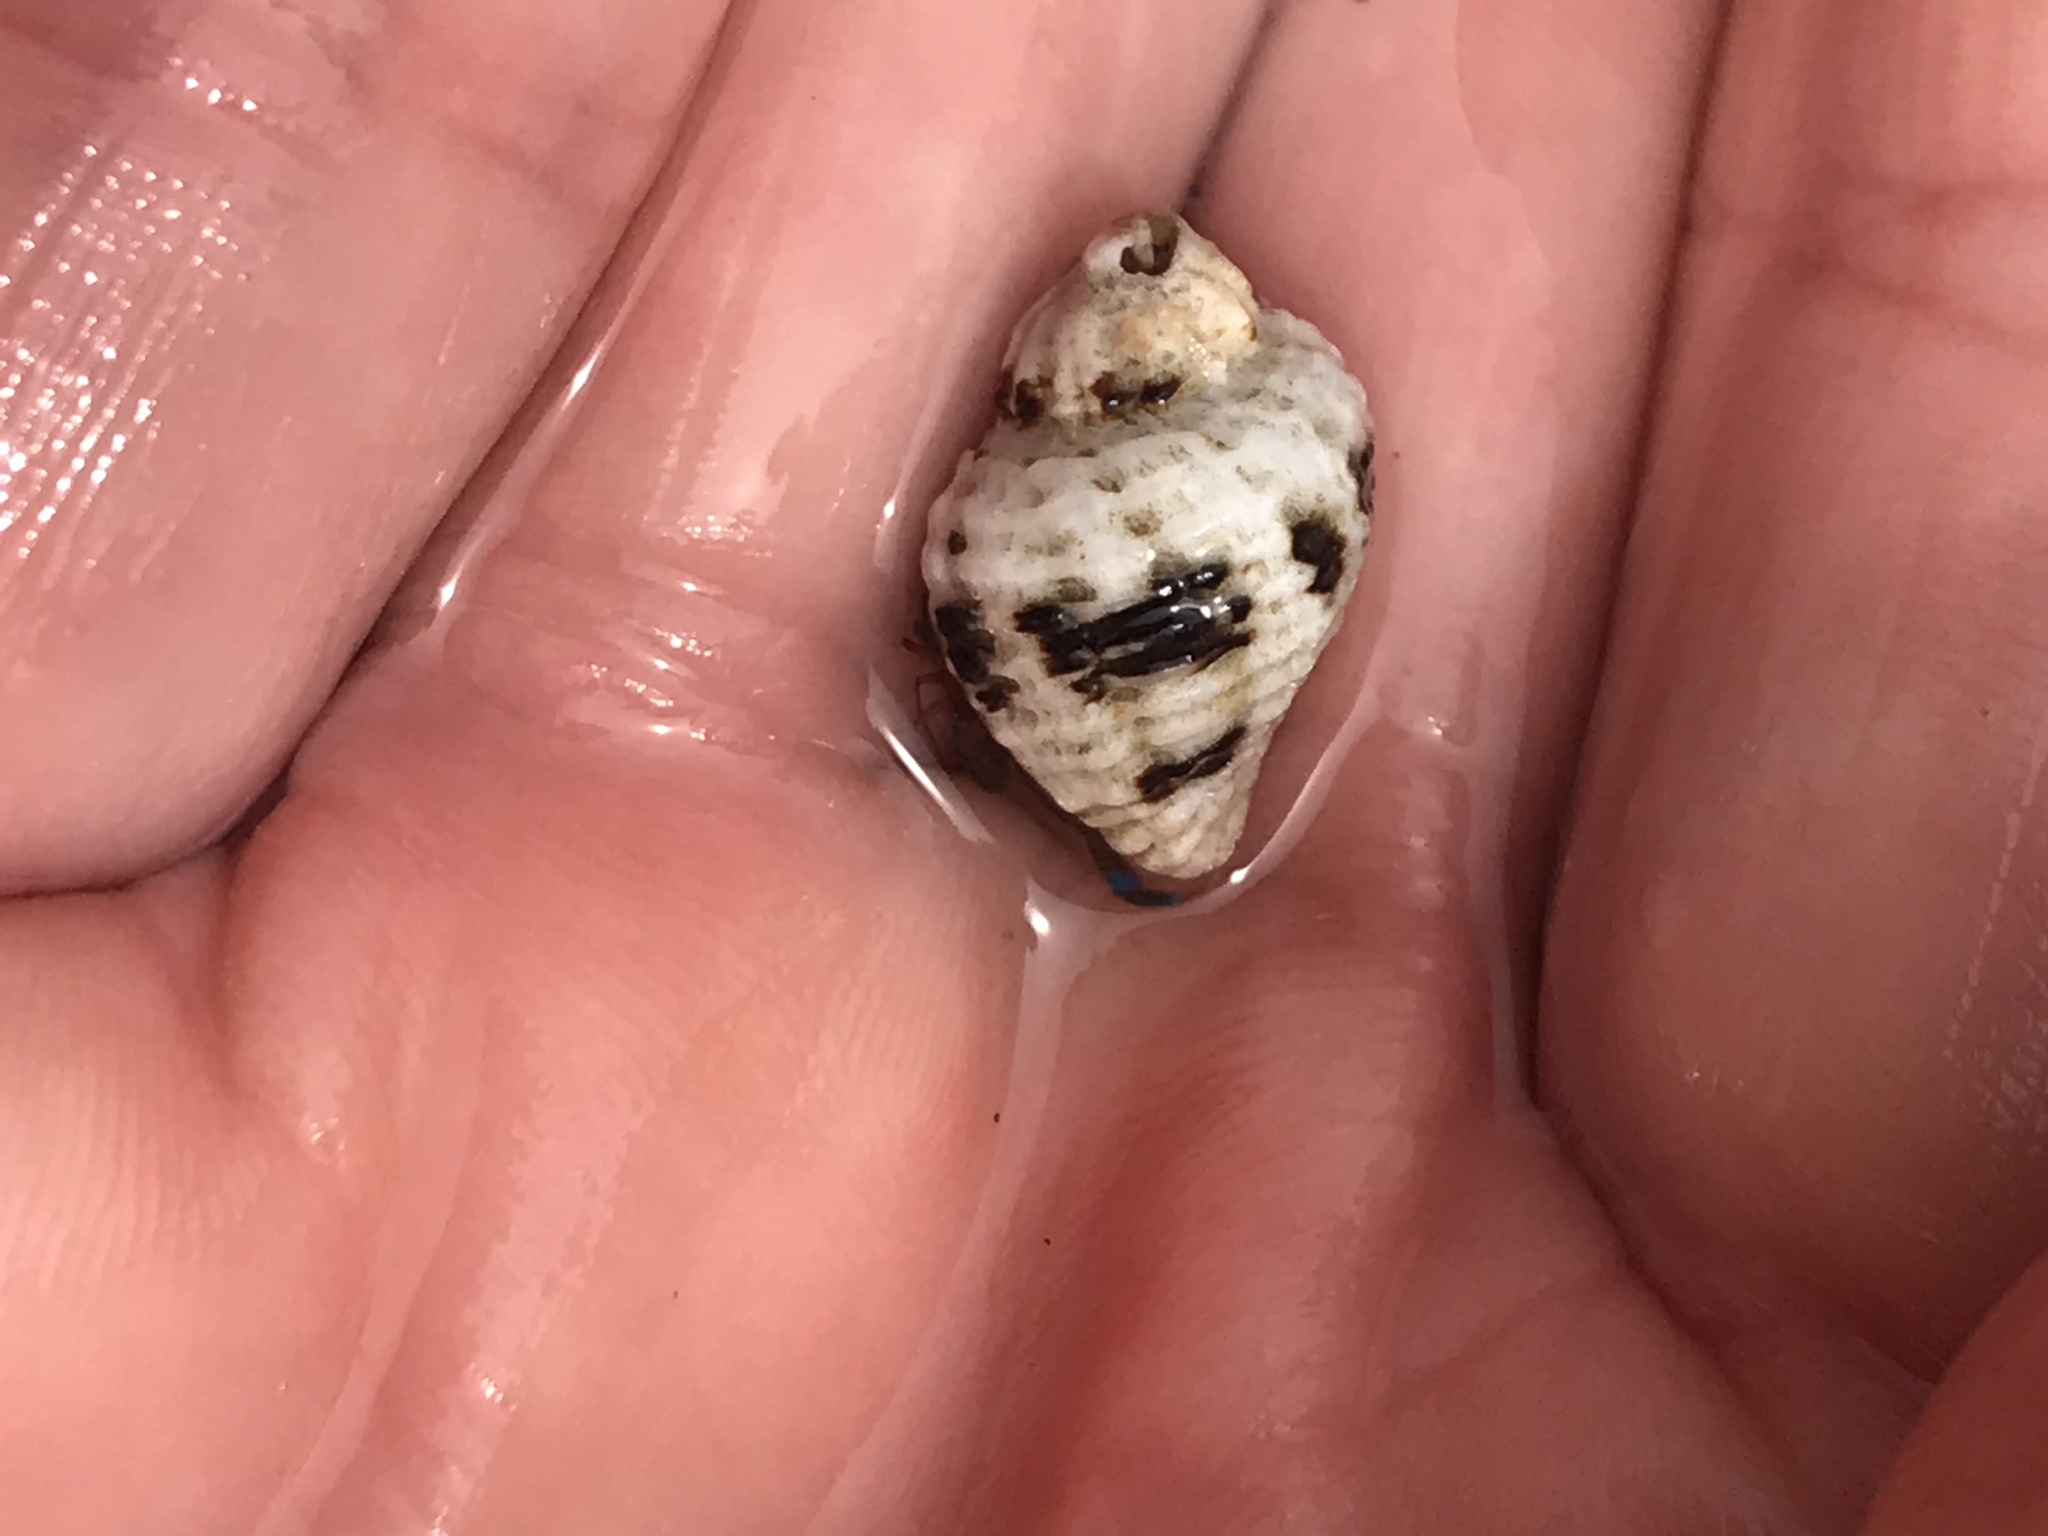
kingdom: Animalia
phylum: Mollusca
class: Gastropoda
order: Neogastropoda
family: Muricidae
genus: Paciocinebrina
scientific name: Paciocinebrina circumtexta
